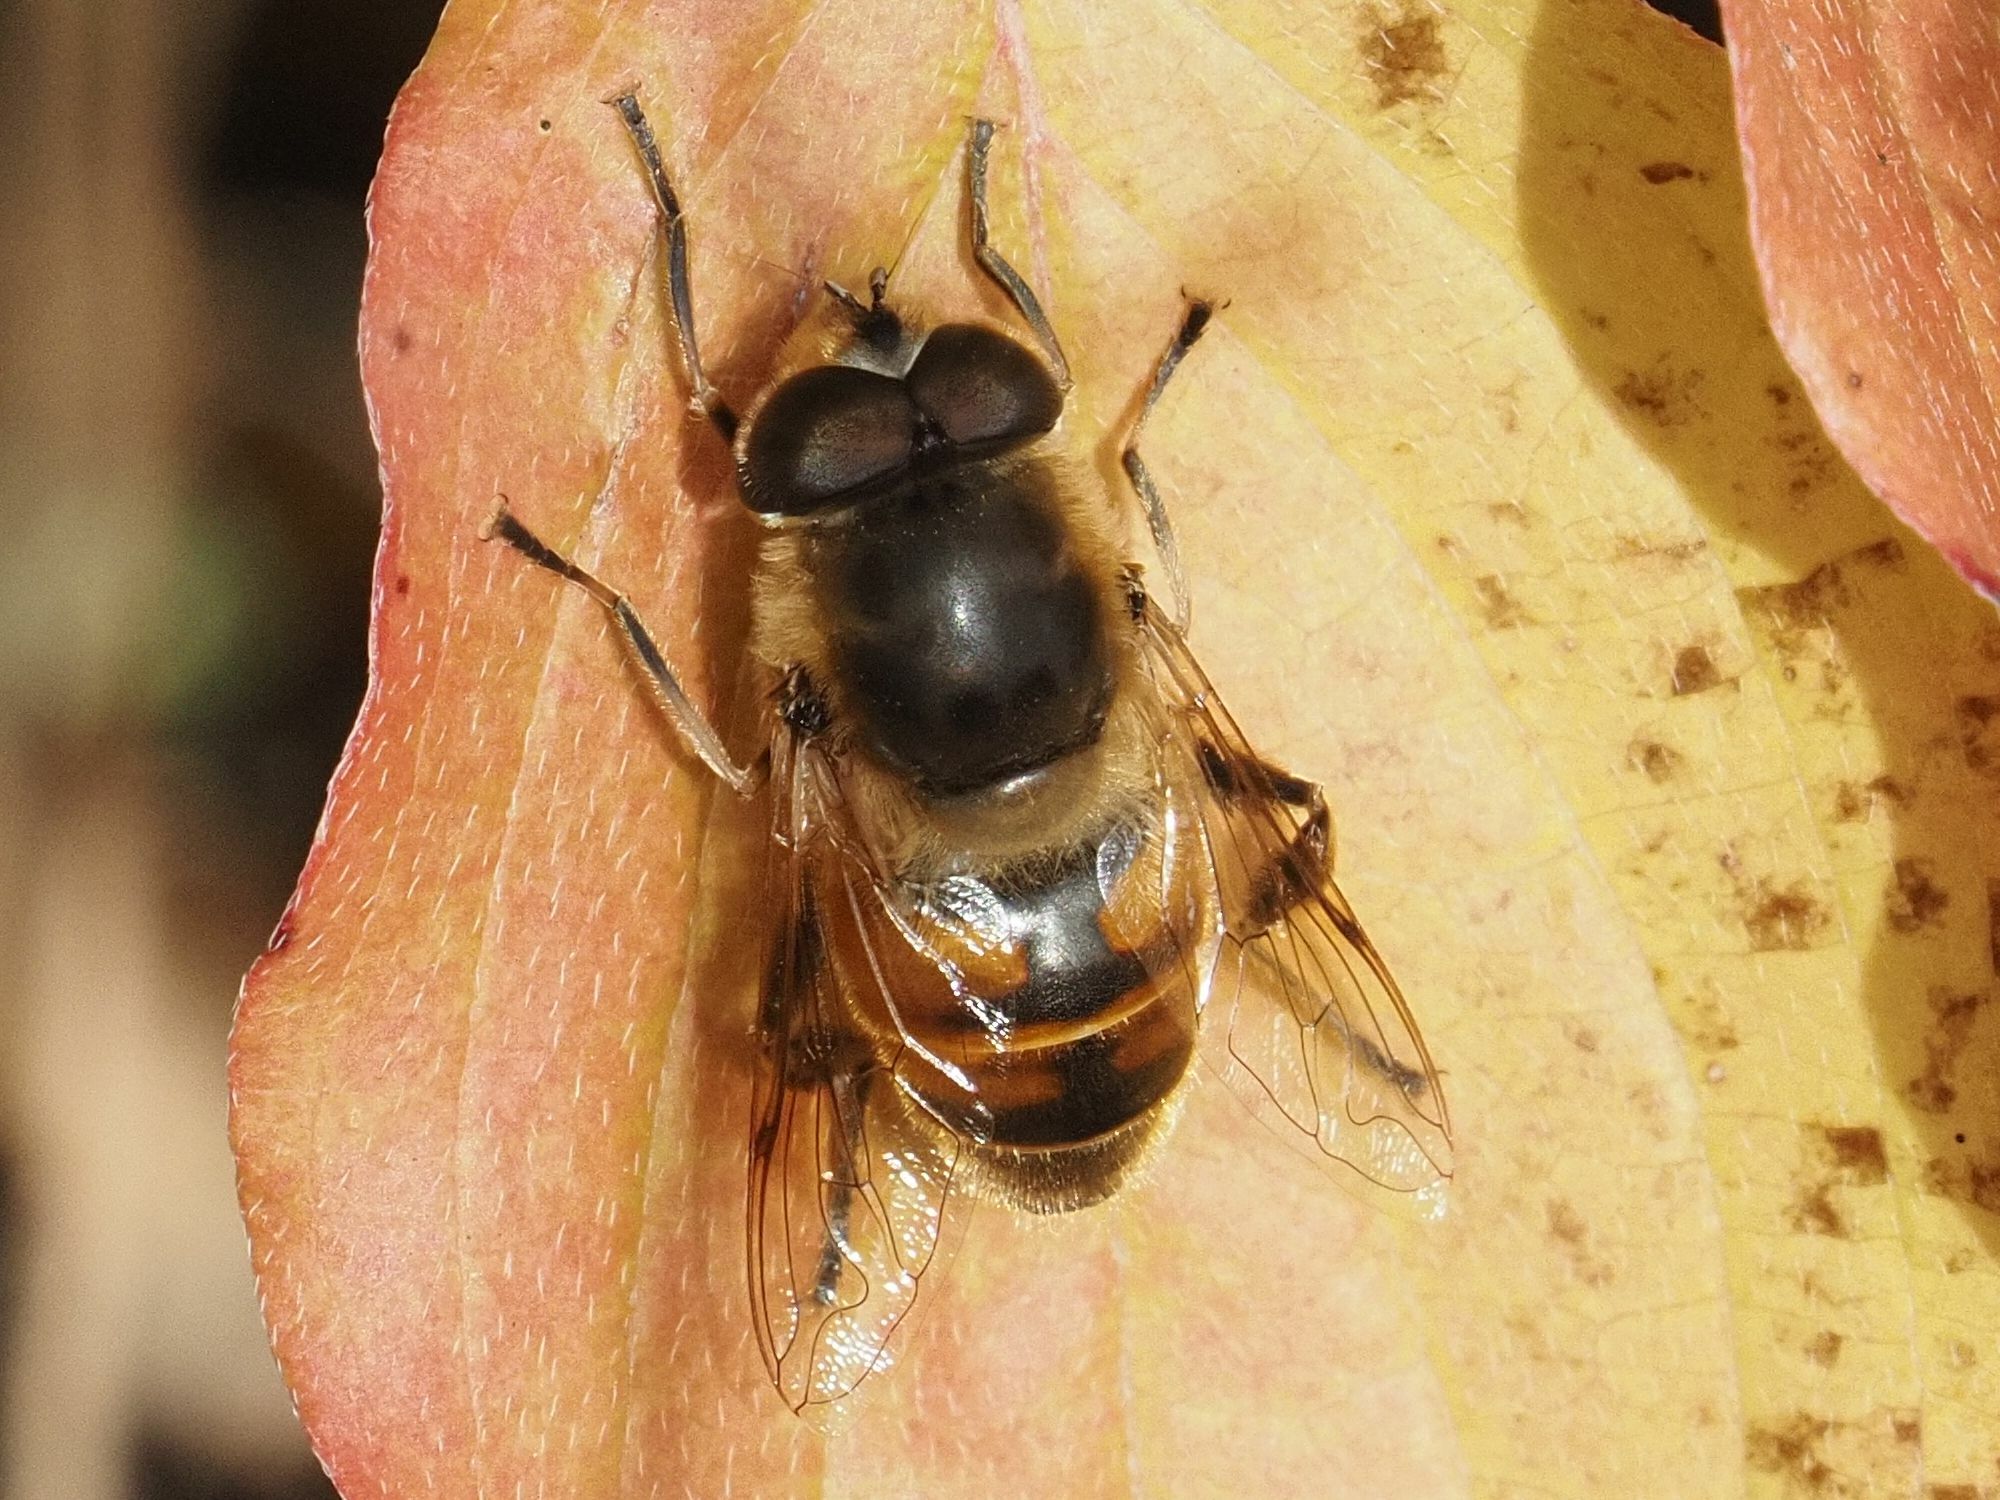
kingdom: Animalia
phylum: Arthropoda
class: Insecta
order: Diptera
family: Syrphidae
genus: Eristalis
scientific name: Eristalis tenax
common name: Drone fly
